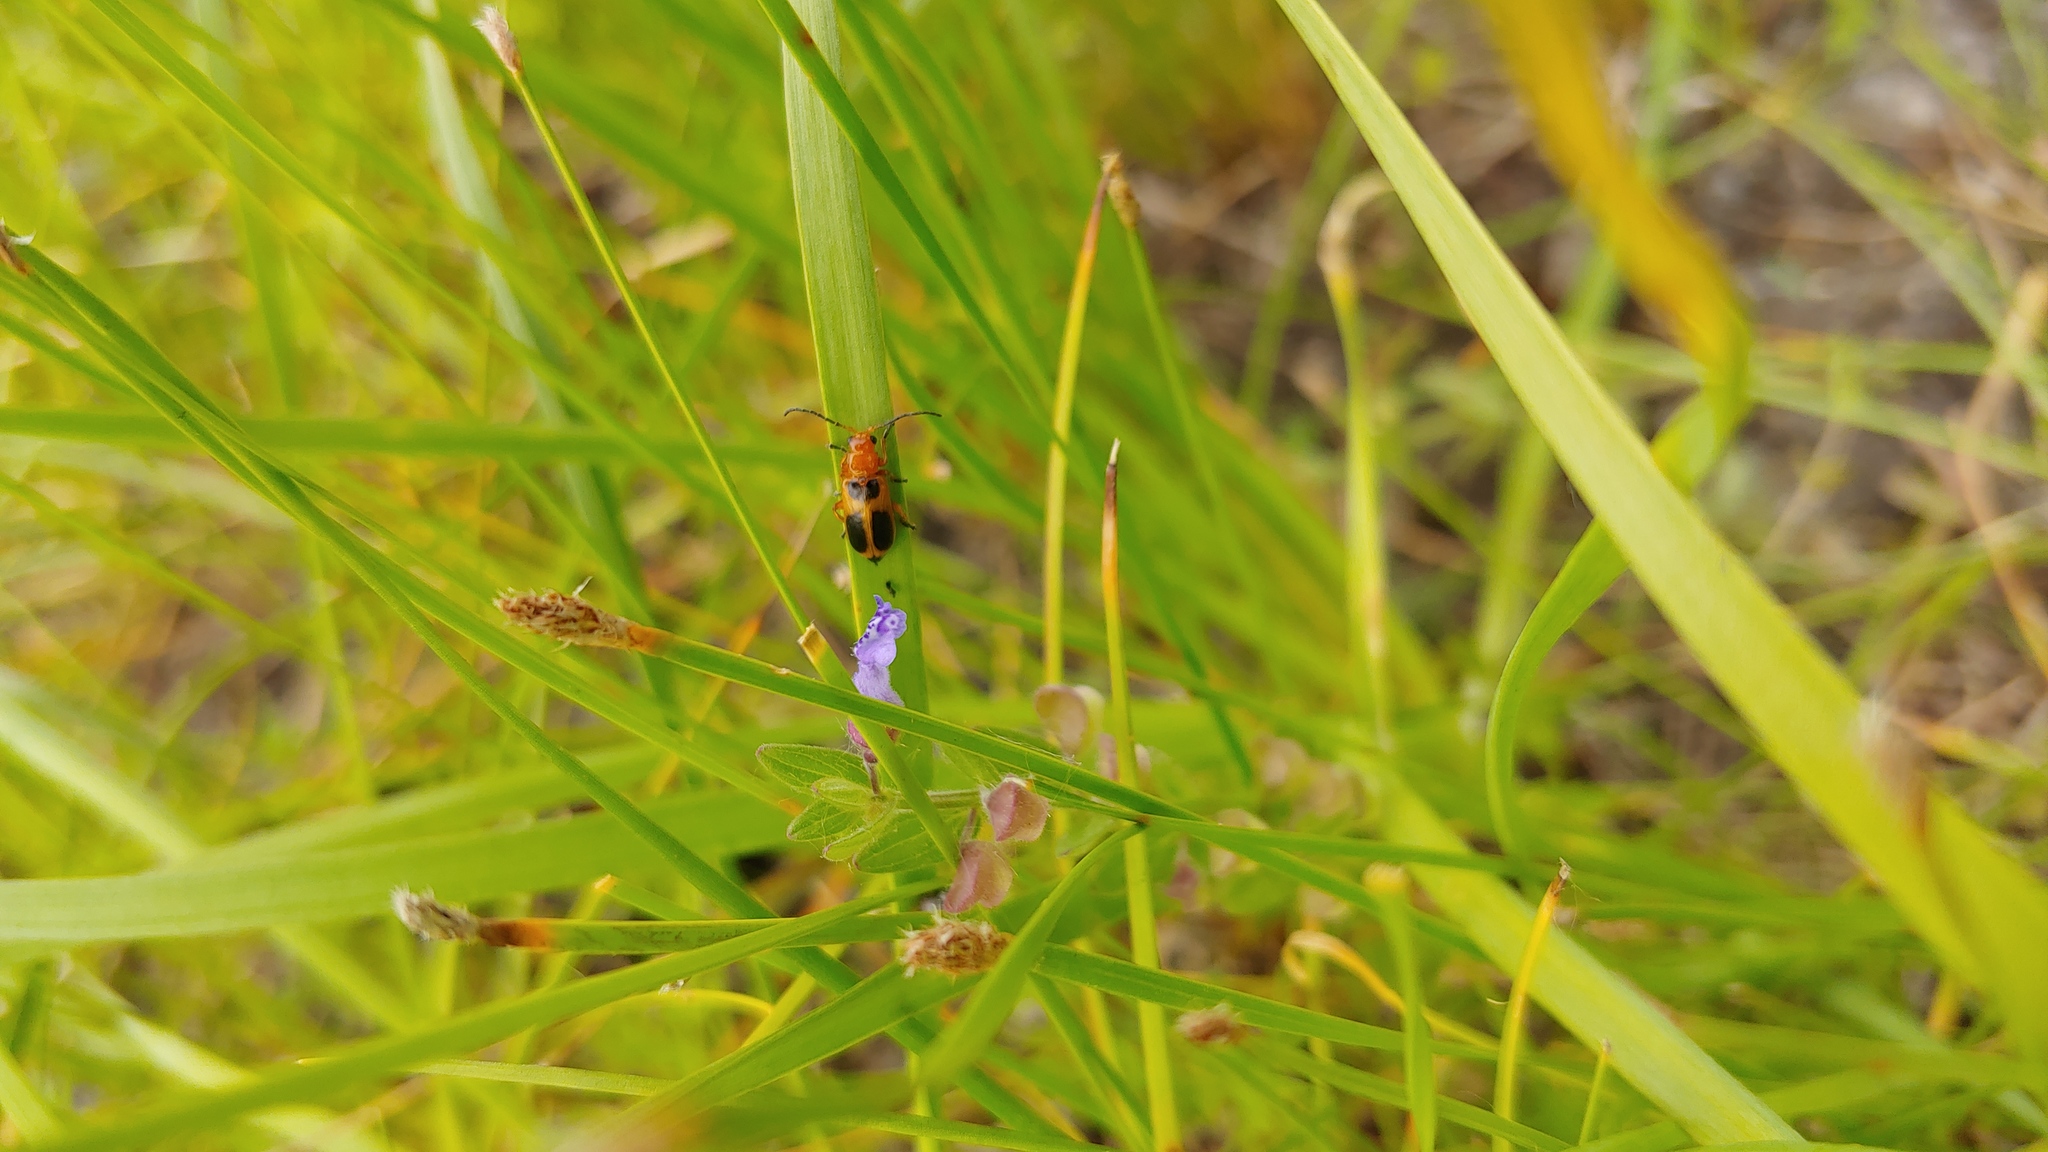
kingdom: Animalia
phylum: Arthropoda
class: Insecta
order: Coleoptera
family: Chrysomelidae
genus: Phyllobrotica
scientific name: Phyllobrotica nigritarsi
